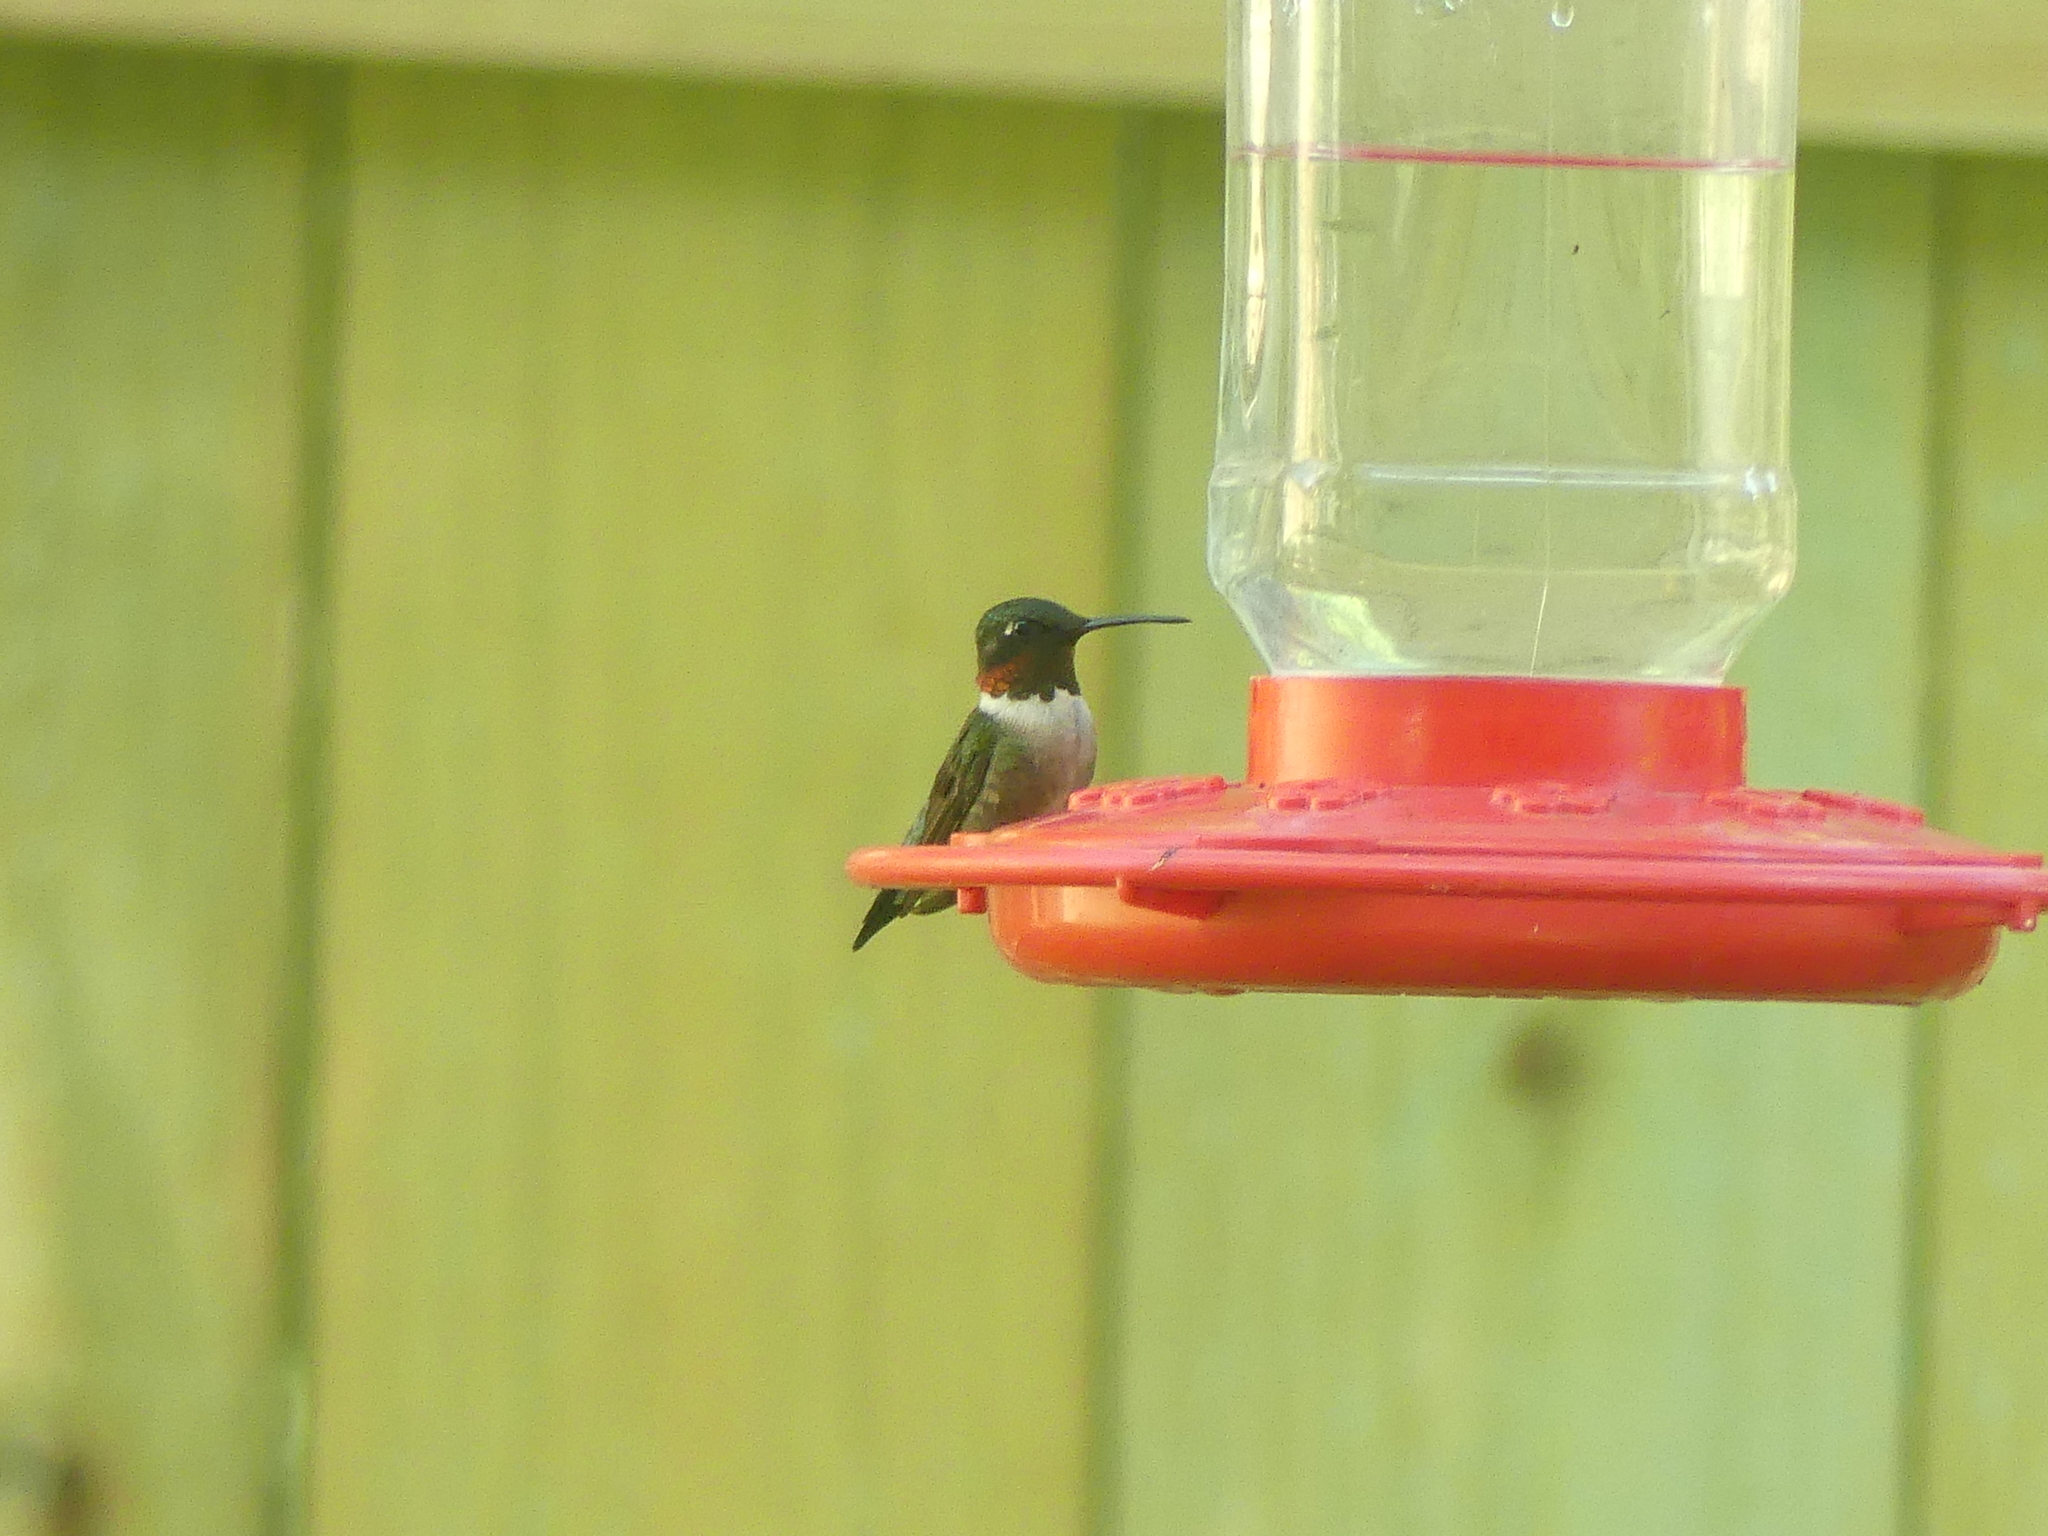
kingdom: Animalia
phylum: Chordata
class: Aves
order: Apodiformes
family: Trochilidae
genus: Archilochus
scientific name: Archilochus colubris
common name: Ruby-throated hummingbird
